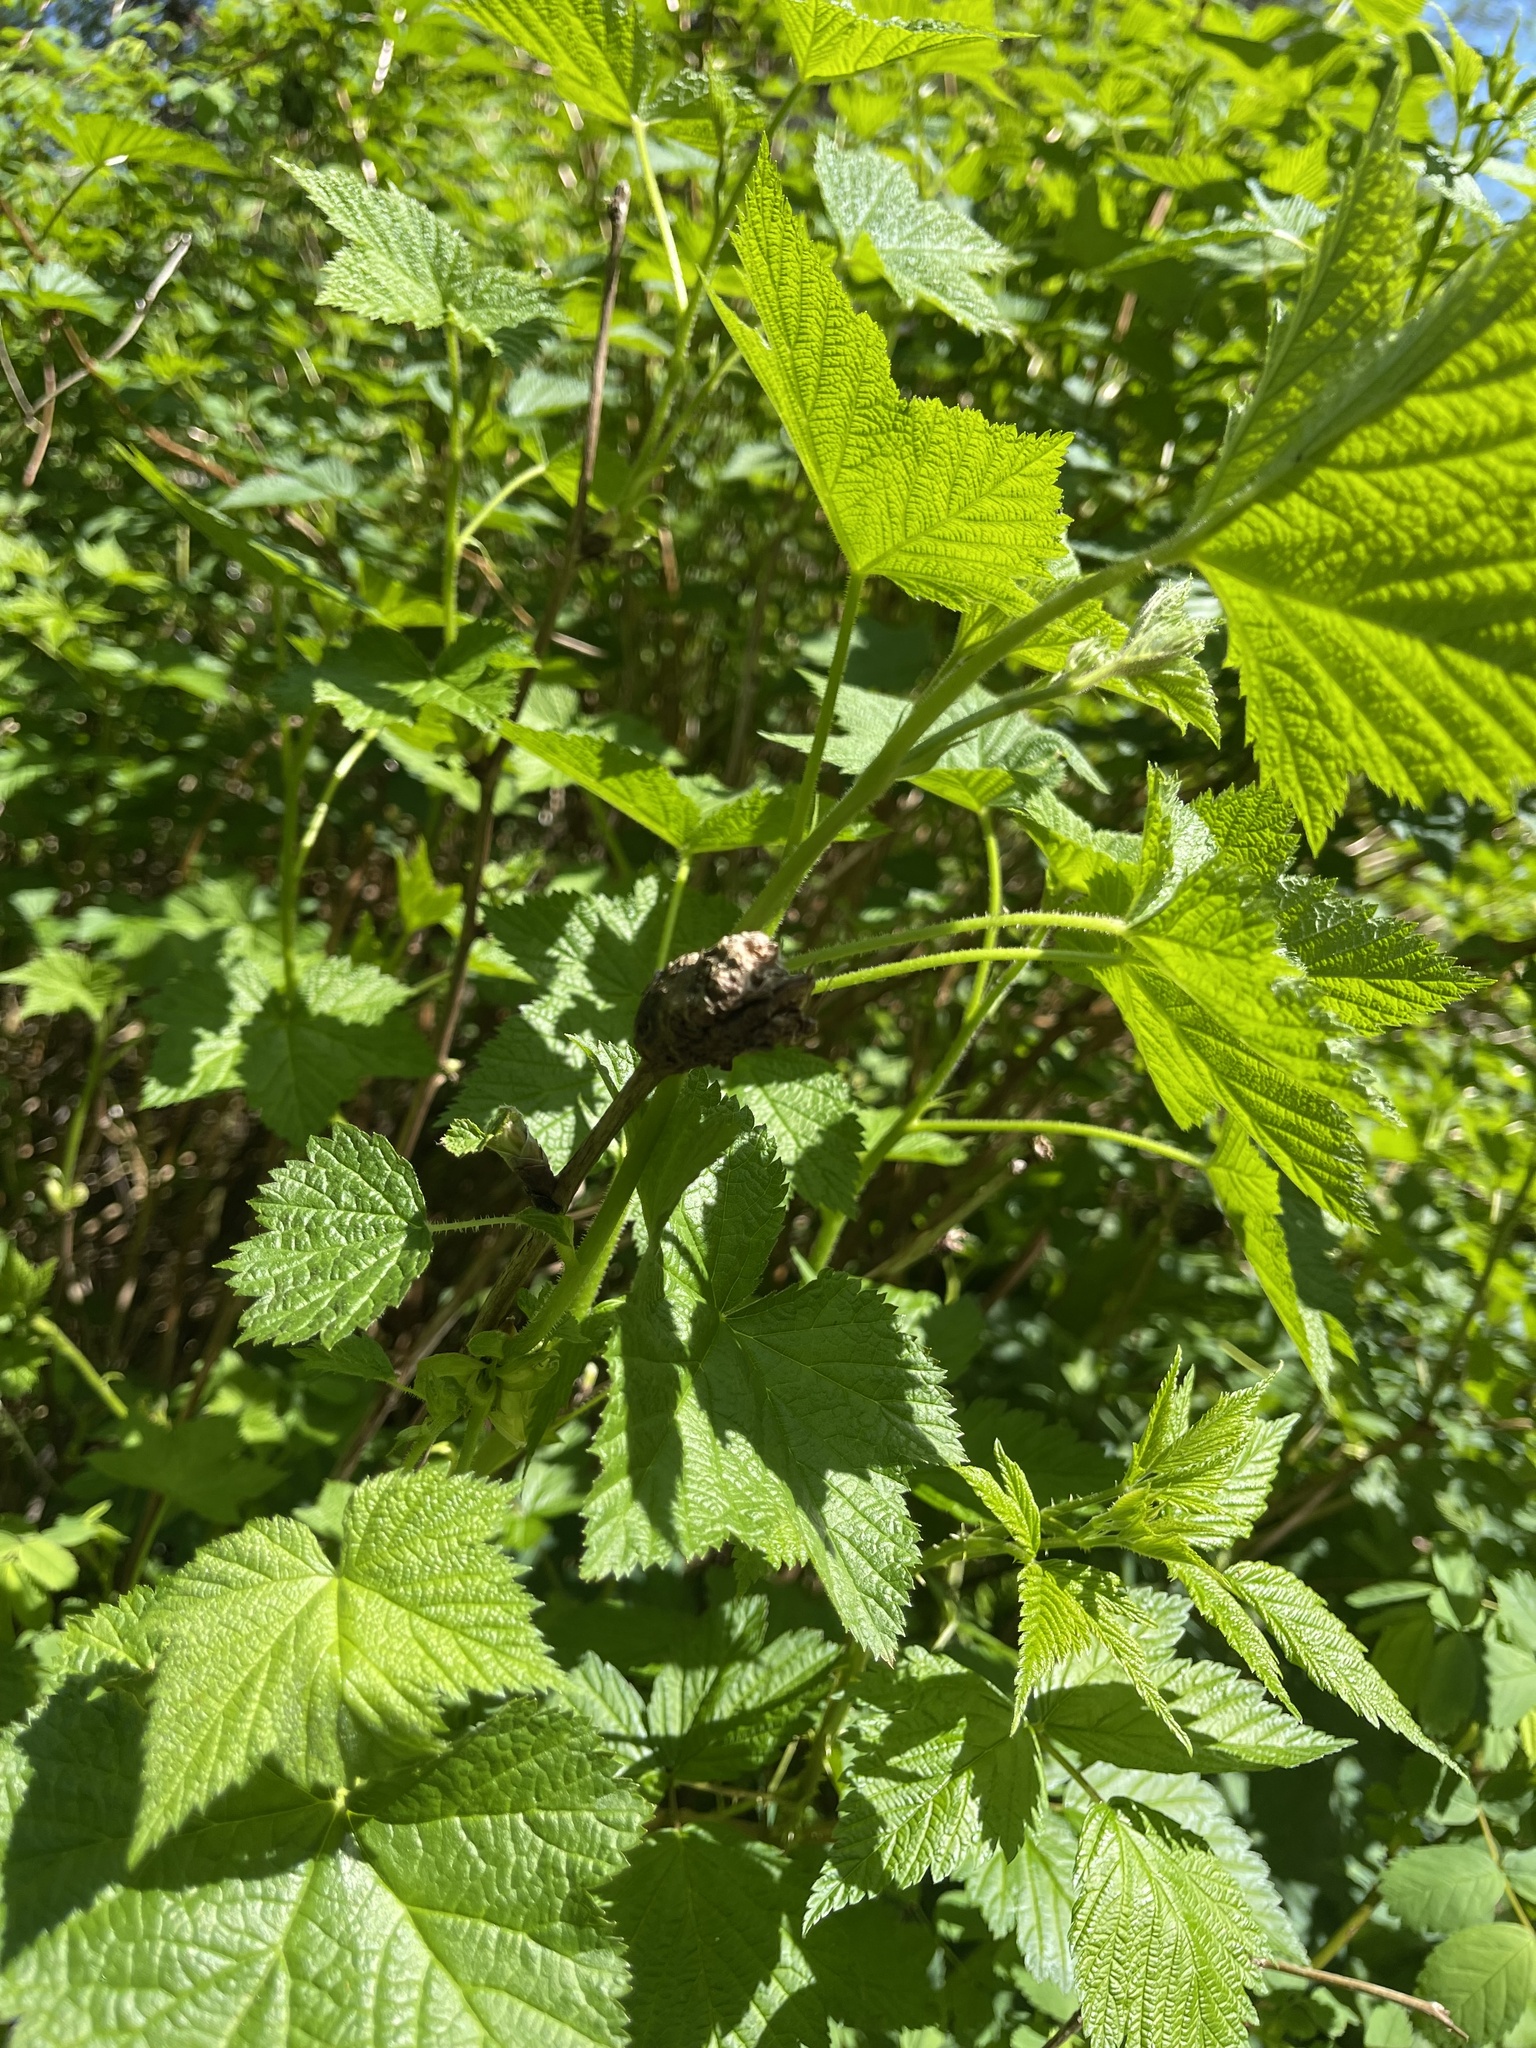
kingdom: Animalia
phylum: Arthropoda
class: Insecta
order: Hymenoptera
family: Cynipidae
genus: Diastrophus
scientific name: Diastrophus
